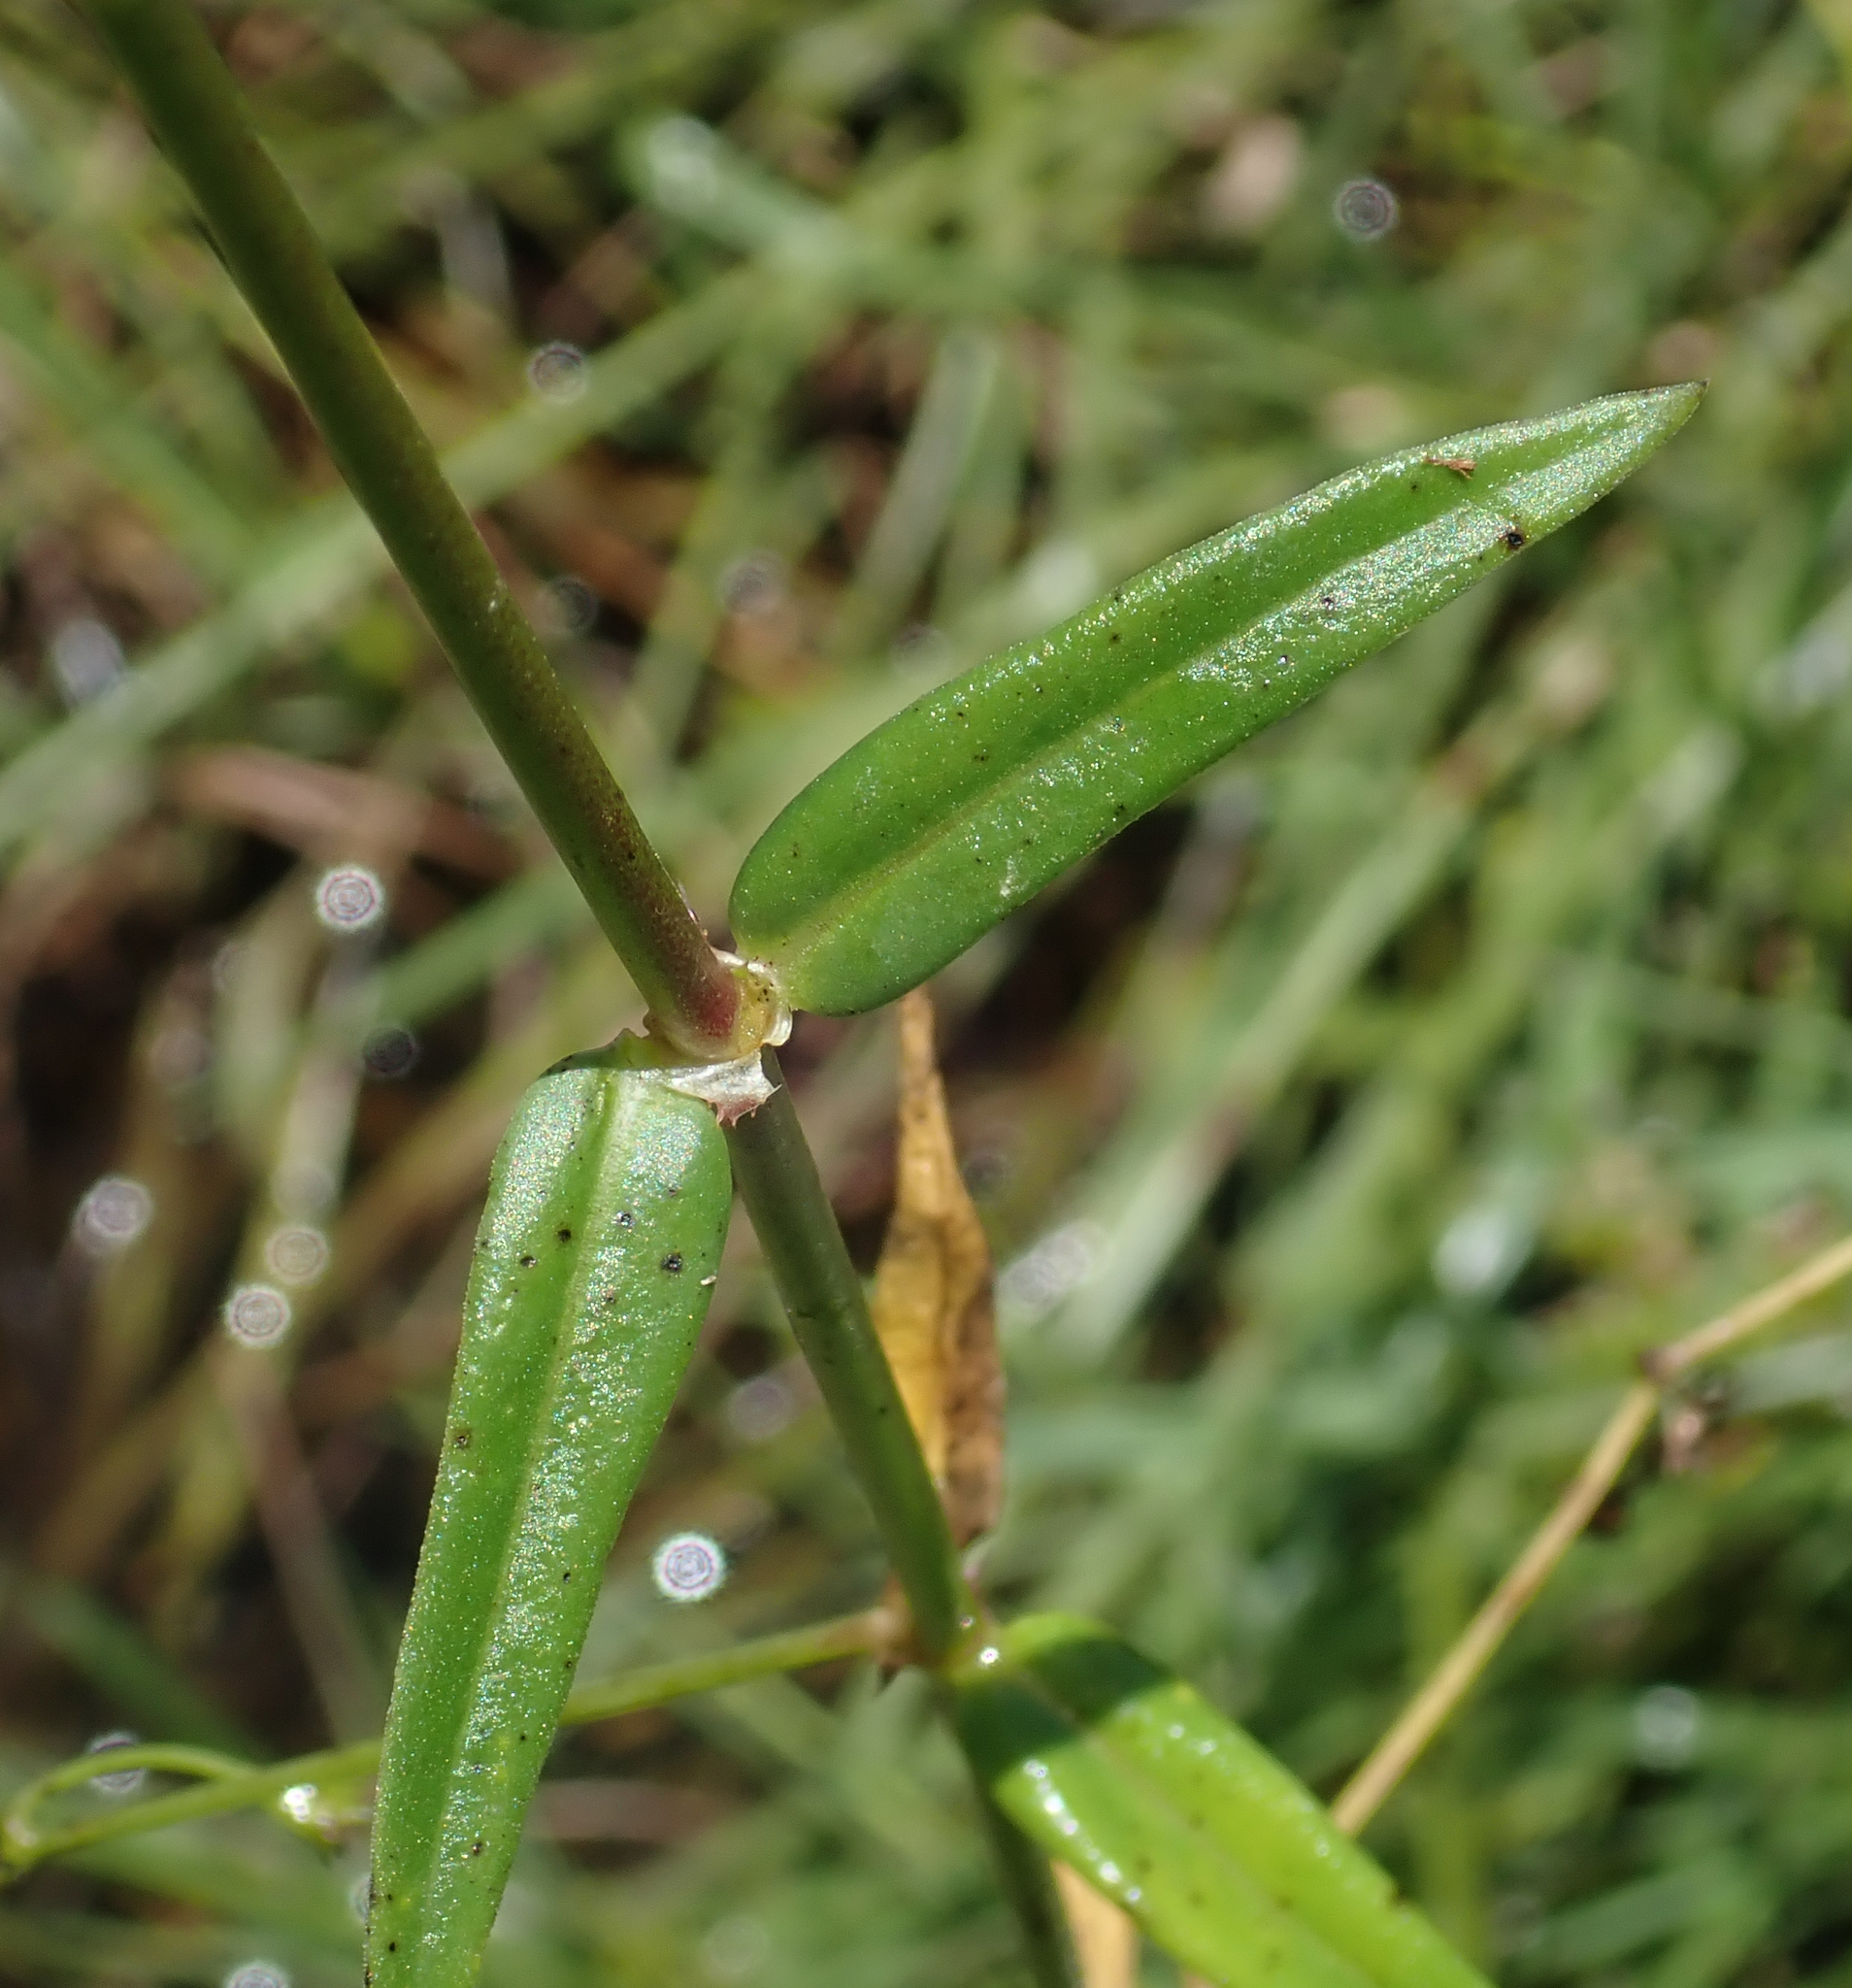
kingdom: Plantae
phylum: Tracheophyta
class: Magnoliopsida
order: Gentianales
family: Rubiaceae
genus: Pentodon
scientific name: Pentodon pentandrus
